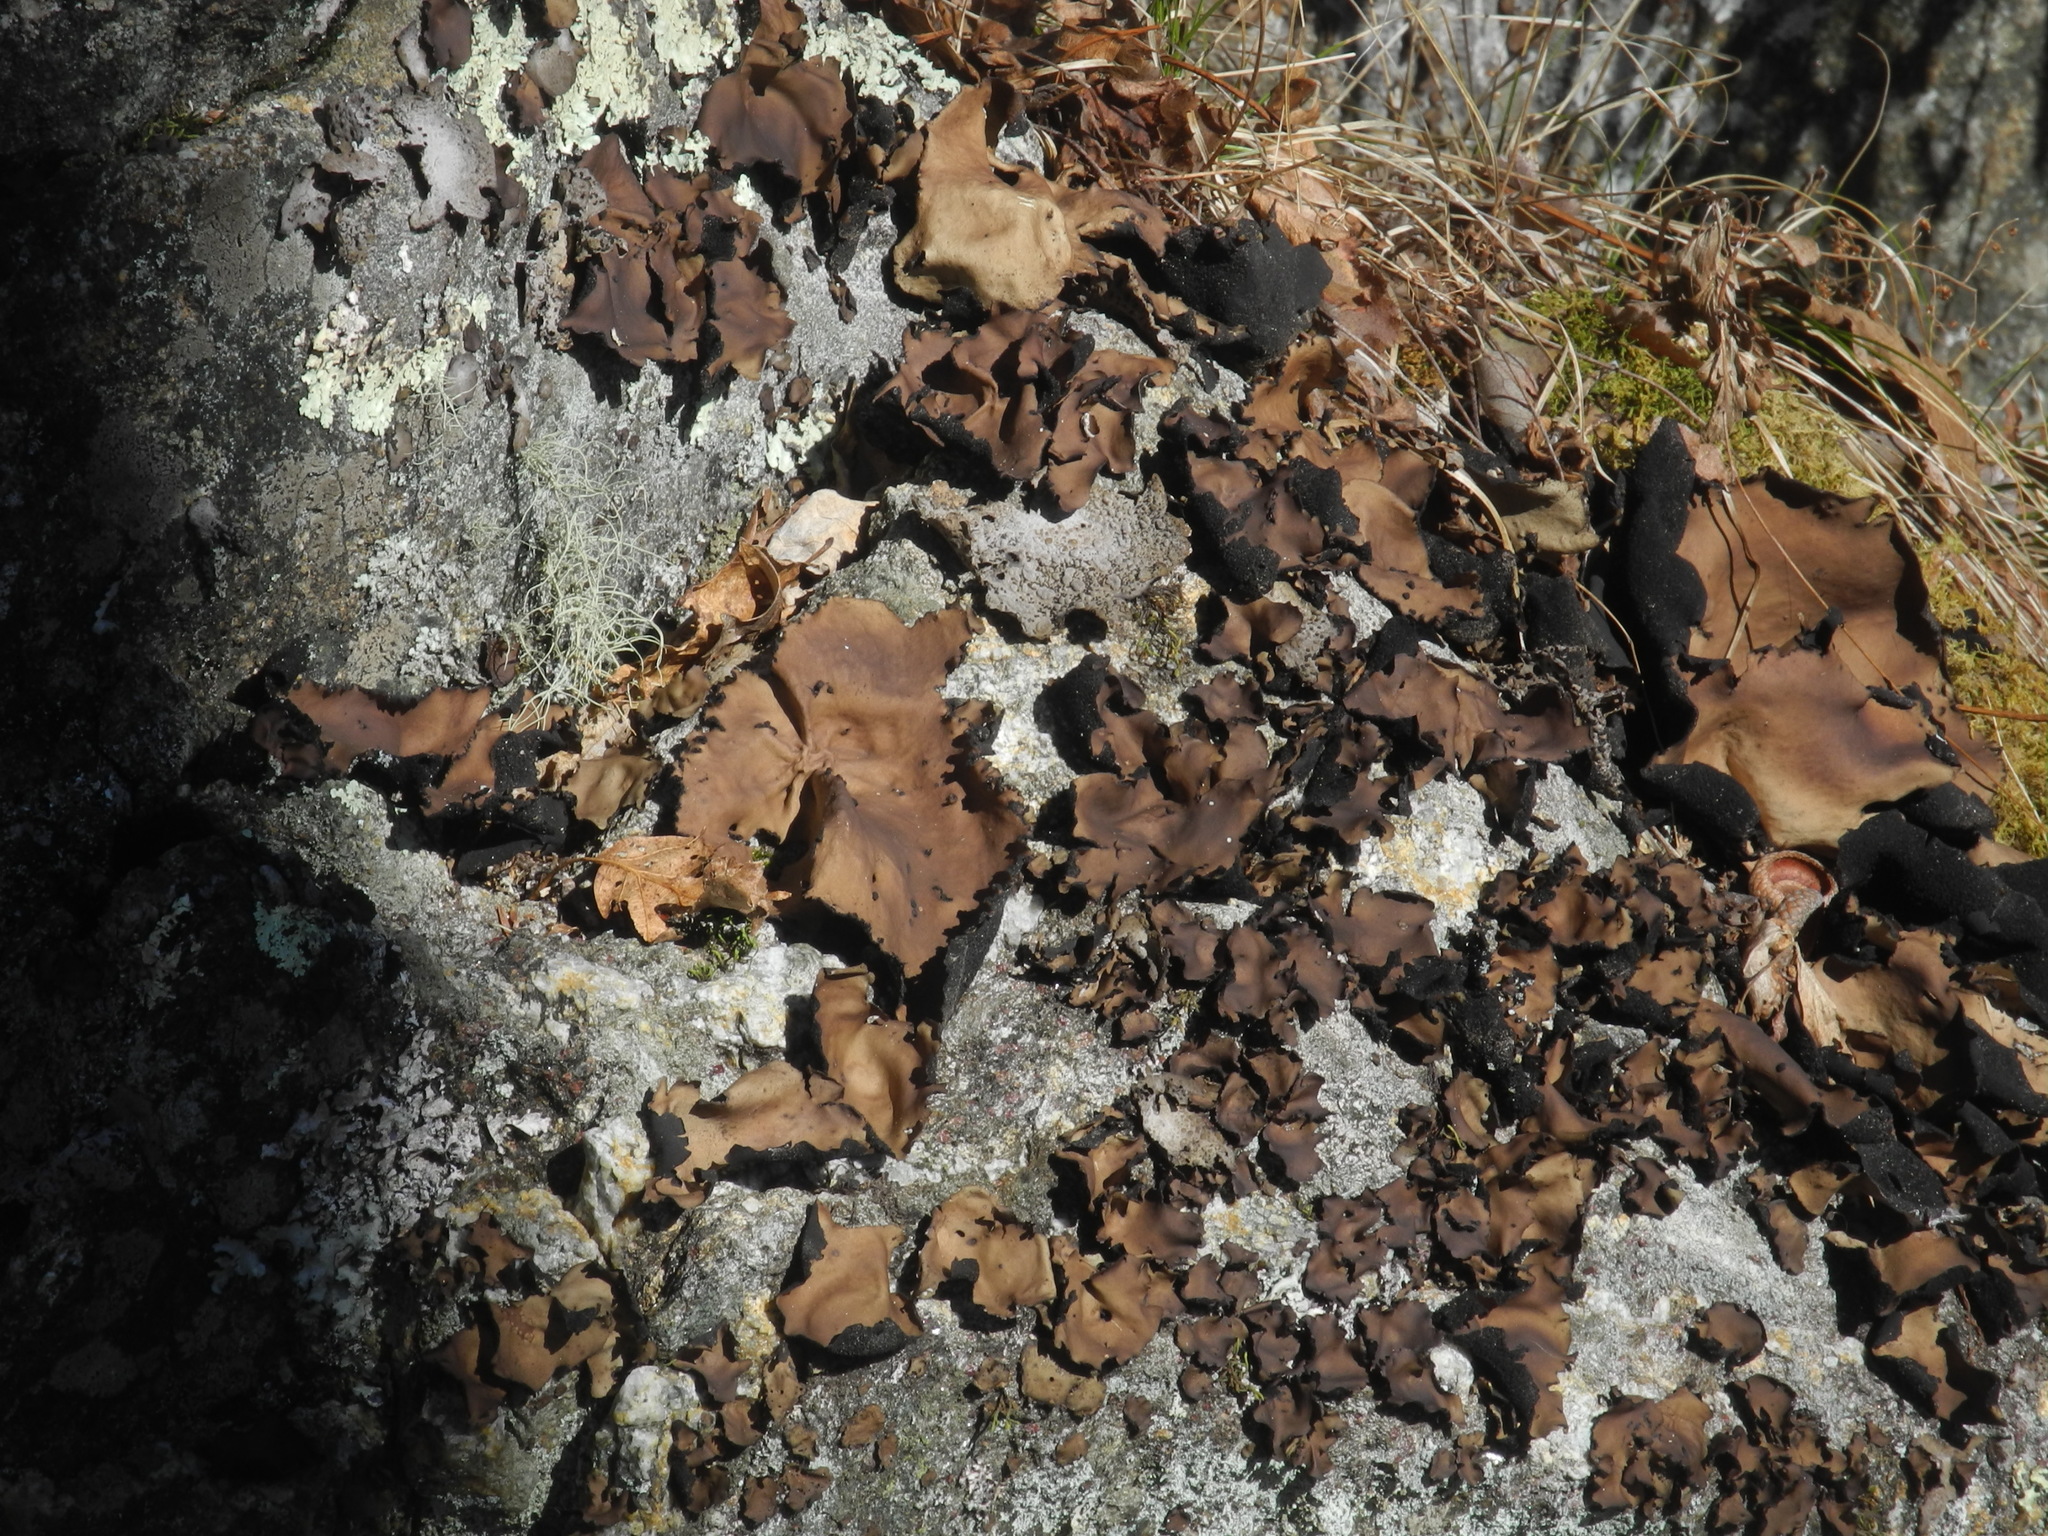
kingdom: Fungi
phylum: Ascomycota
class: Lecanoromycetes
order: Umbilicariales
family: Umbilicariaceae
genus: Umbilicaria
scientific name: Umbilicaria mammulata
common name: Smooth rock tripe
